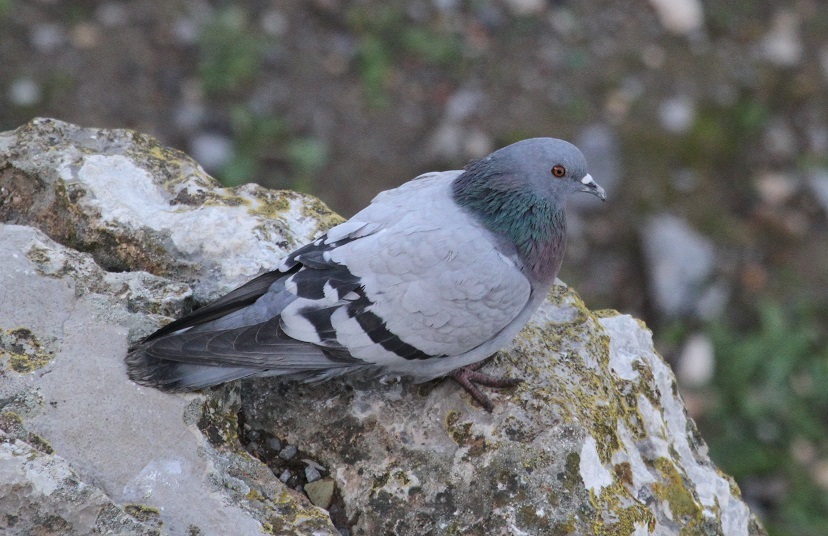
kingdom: Animalia
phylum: Chordata
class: Aves
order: Columbiformes
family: Columbidae
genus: Columba
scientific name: Columba livia
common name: Rock pigeon
